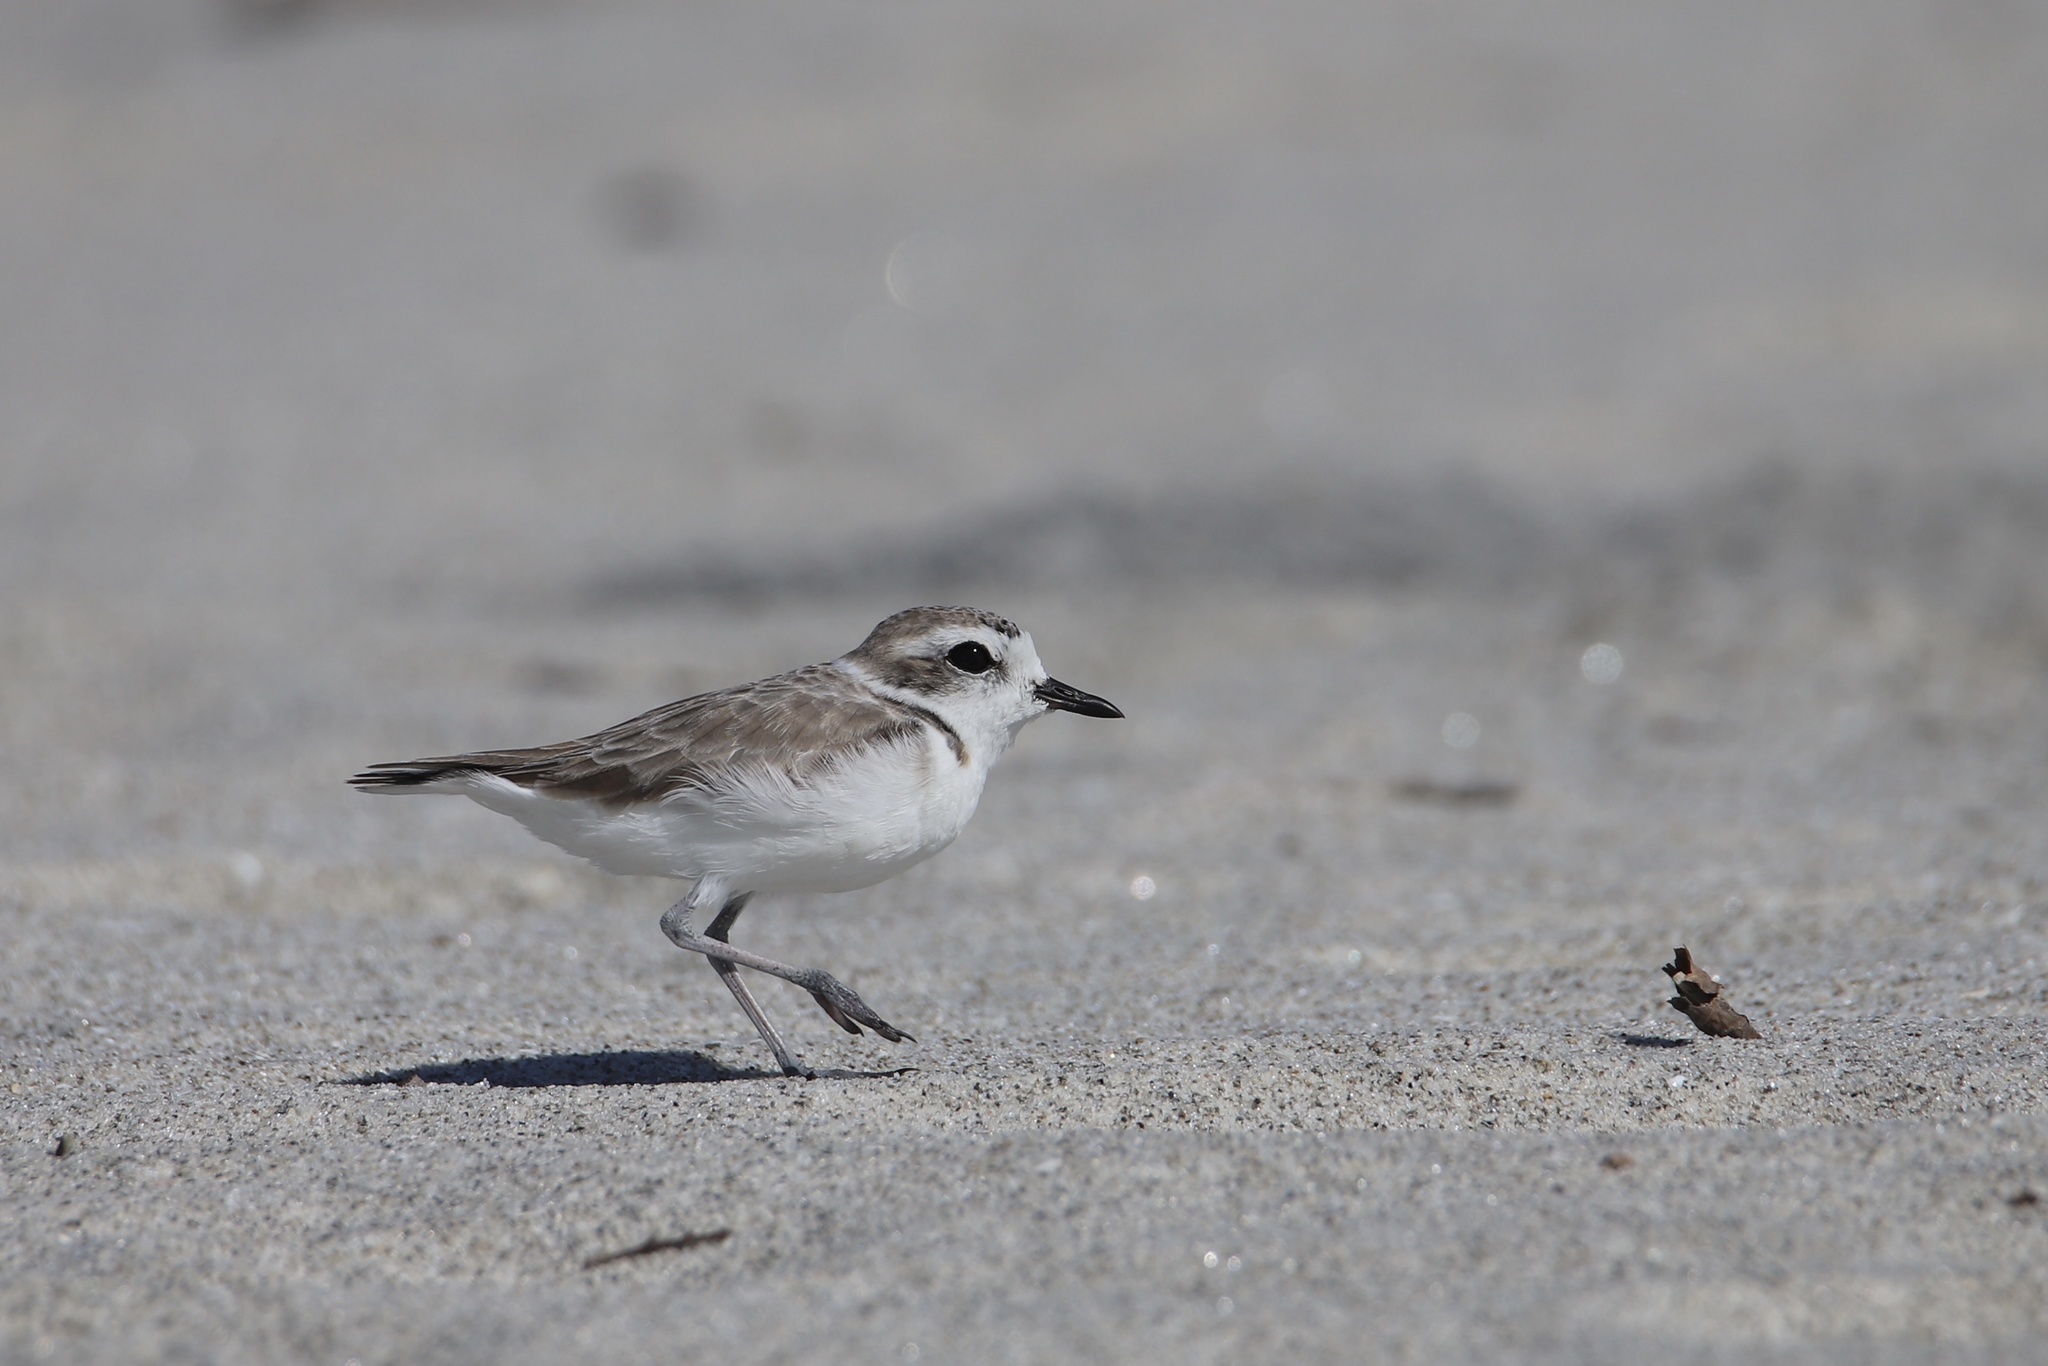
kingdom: Animalia
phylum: Chordata
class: Aves
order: Charadriiformes
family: Charadriidae
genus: Anarhynchus
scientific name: Anarhynchus
